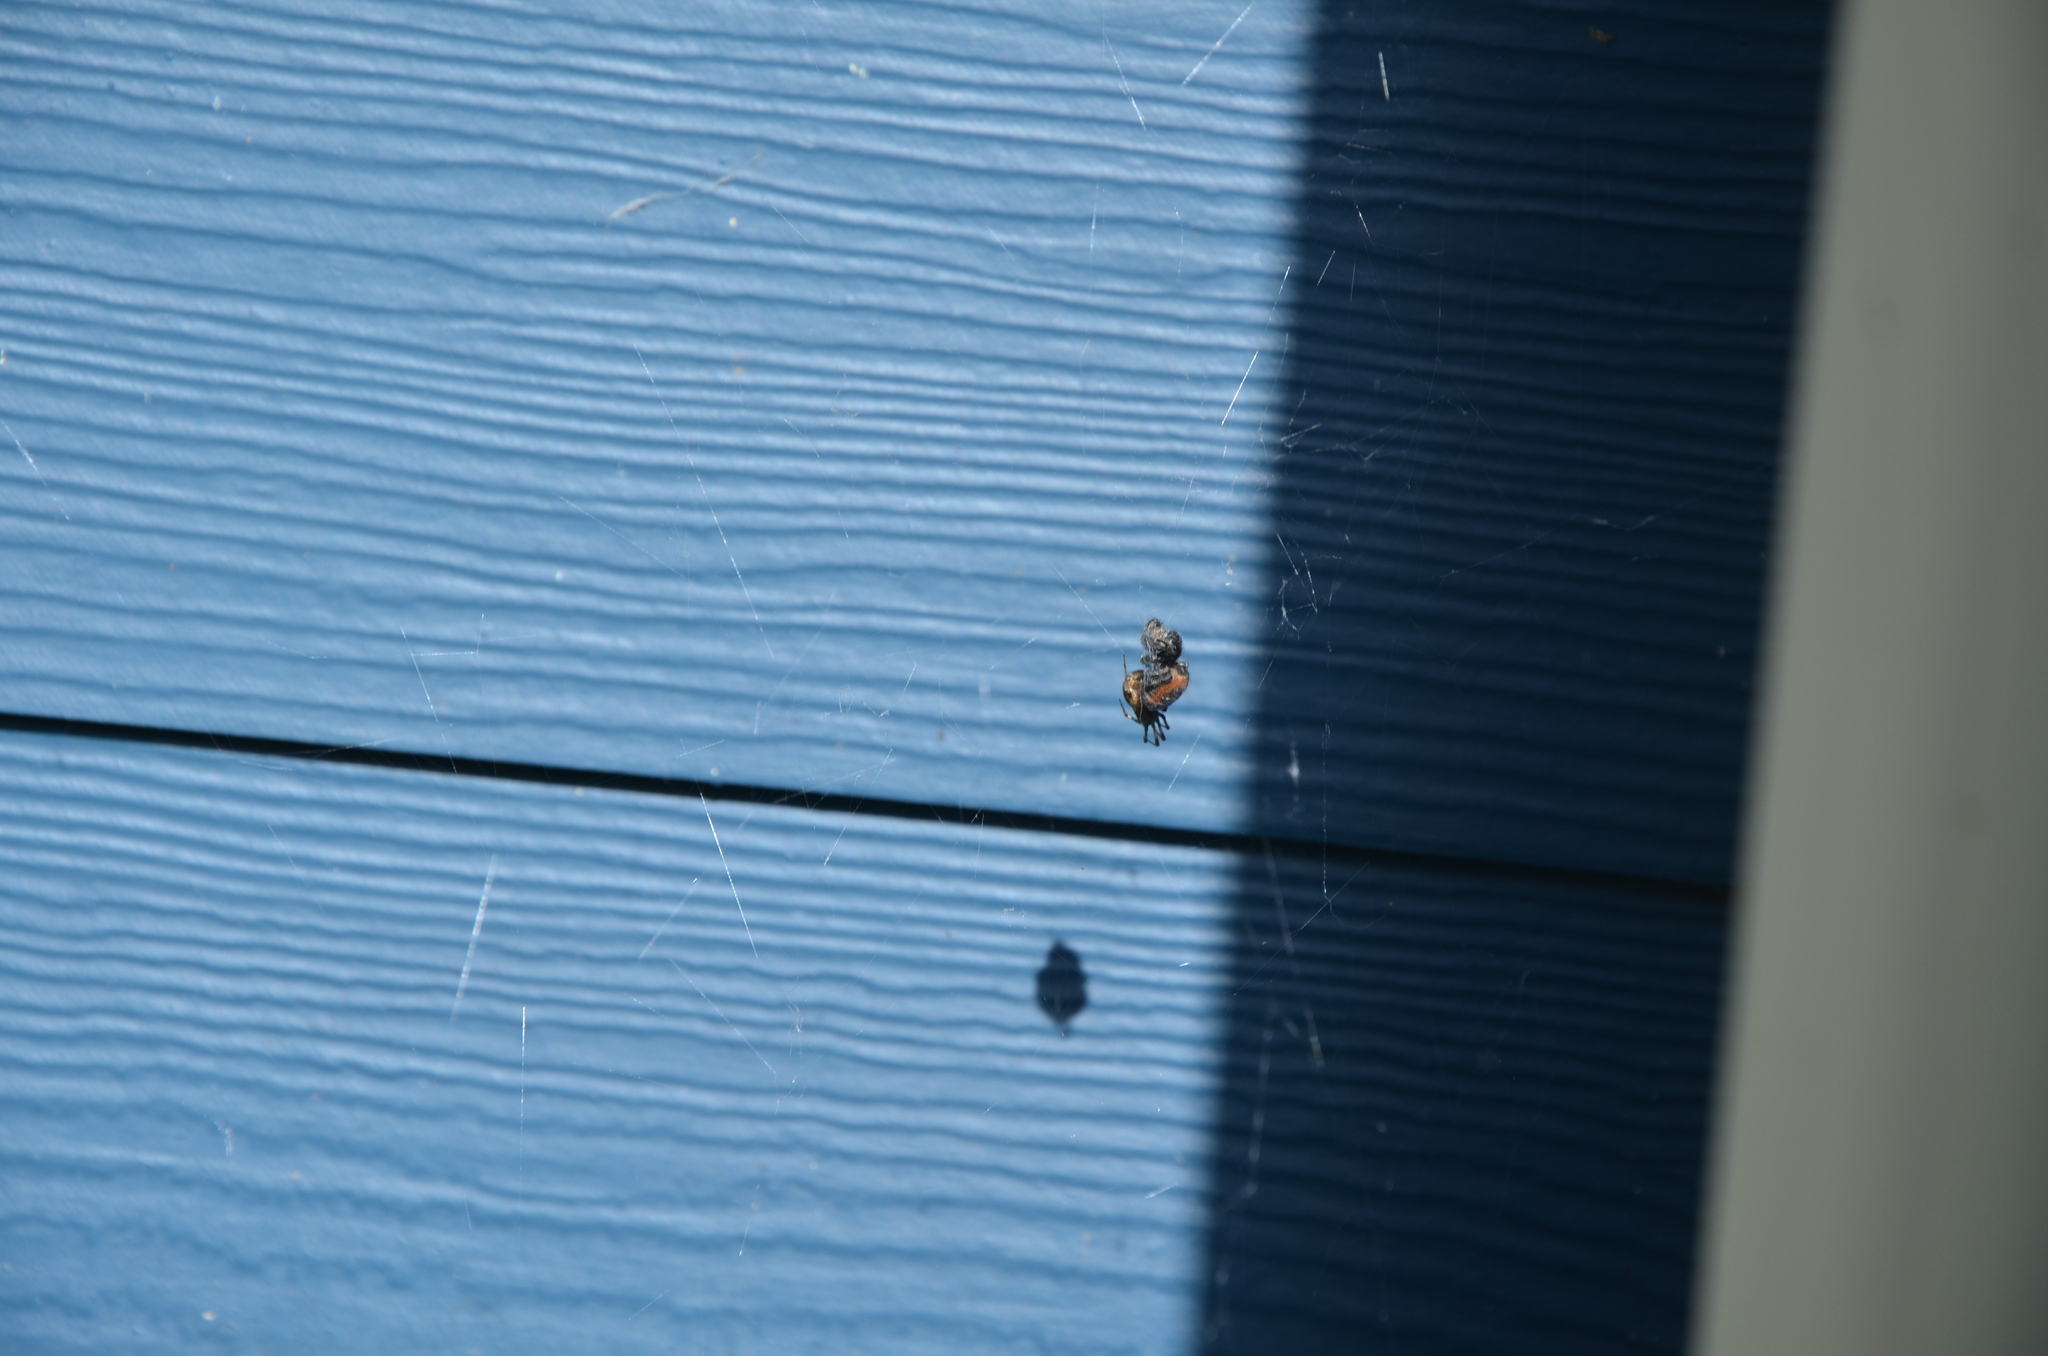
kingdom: Animalia
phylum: Arthropoda
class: Arachnida
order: Araneae
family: Salticidae
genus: Phidippus
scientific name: Phidippus johnsoni
